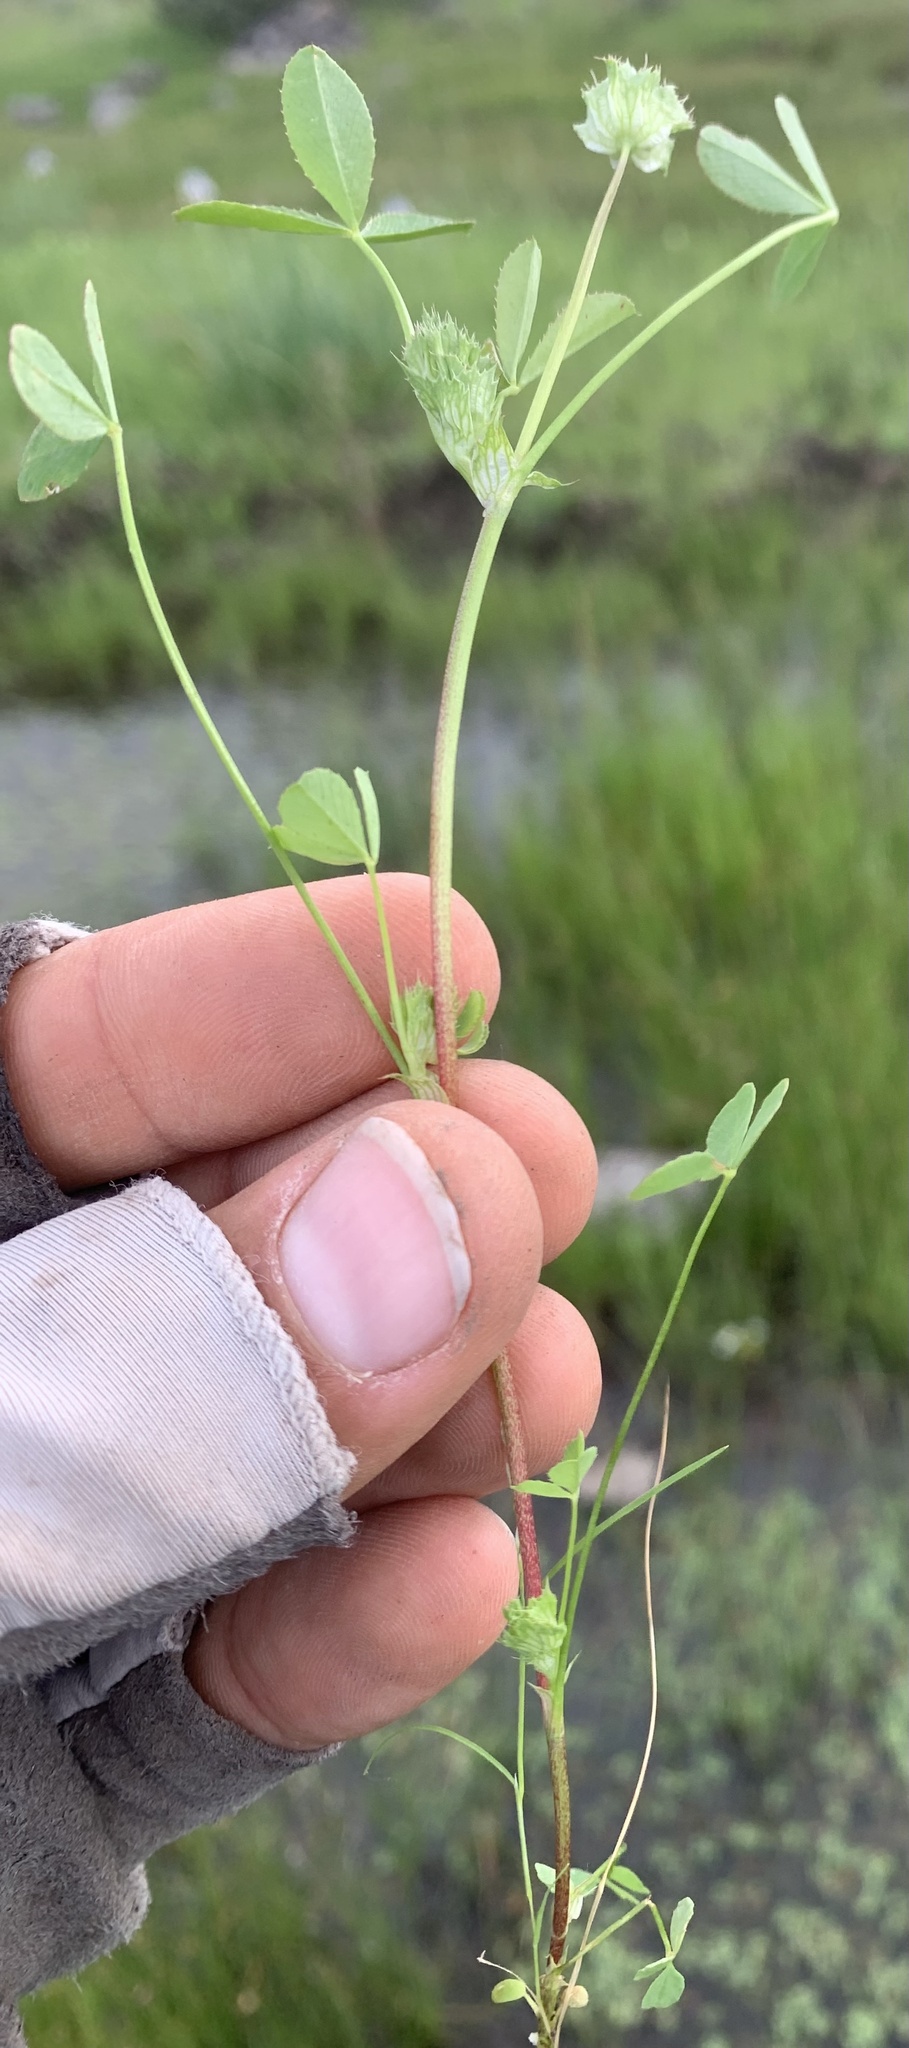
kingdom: Plantae
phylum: Tracheophyta
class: Magnoliopsida
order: Fabales
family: Fabaceae
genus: Trifolium
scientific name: Trifolium cyathiferum
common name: Bowl clover
